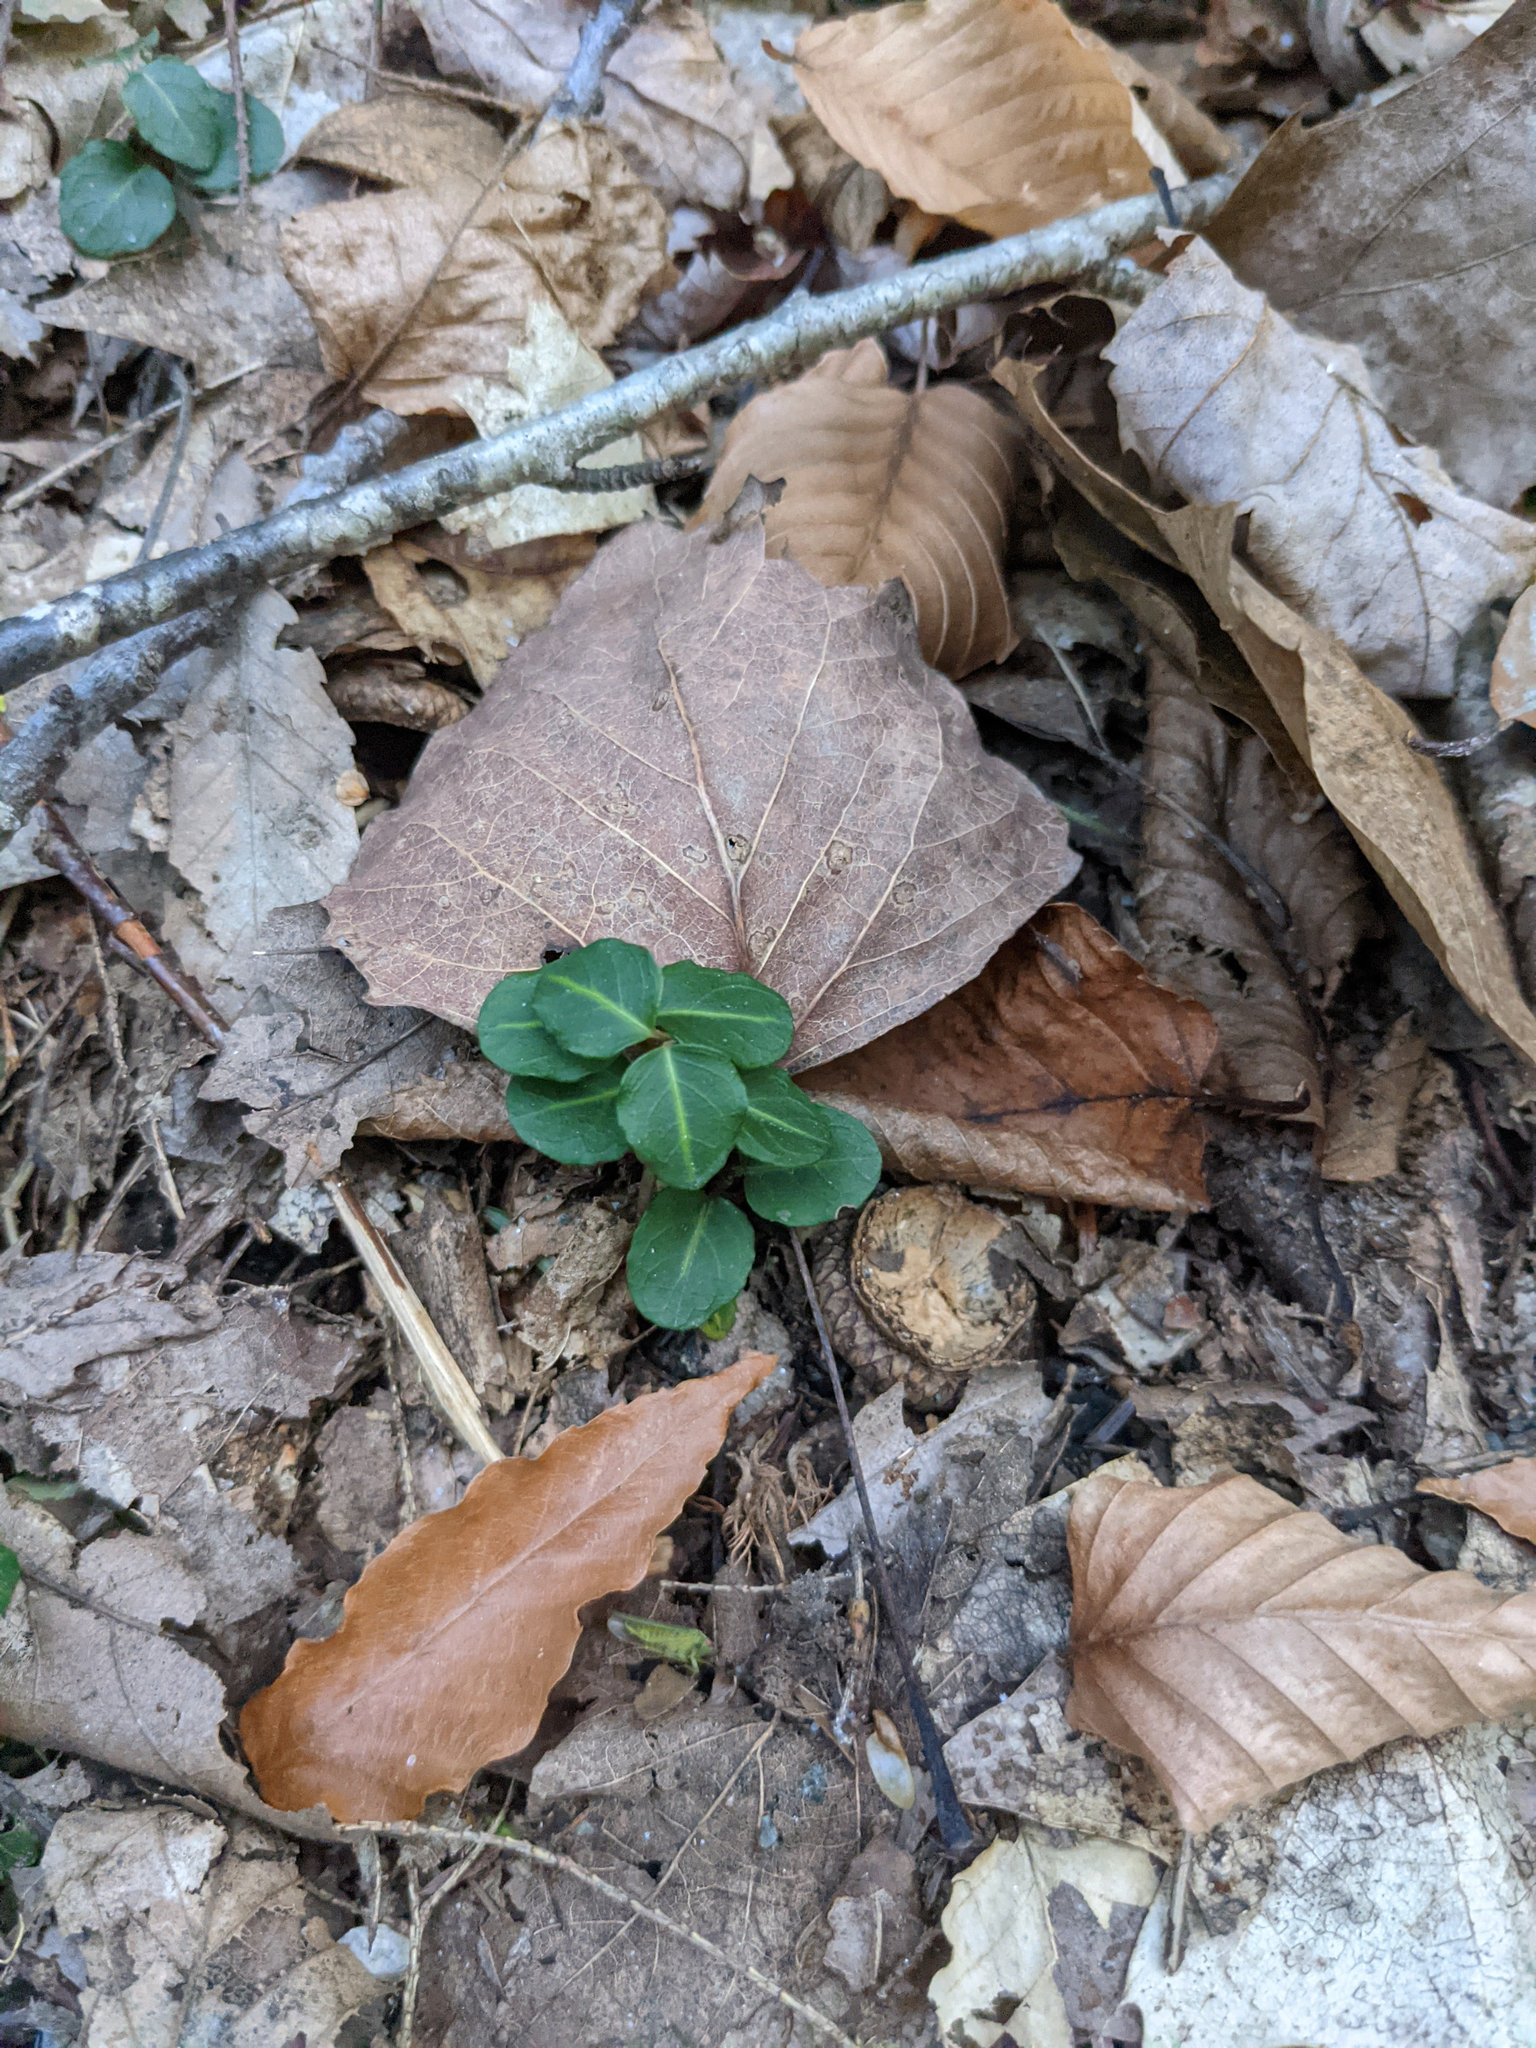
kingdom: Plantae
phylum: Tracheophyta
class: Magnoliopsida
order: Gentianales
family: Rubiaceae
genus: Mitchella
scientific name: Mitchella repens
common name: Partridge-berry
